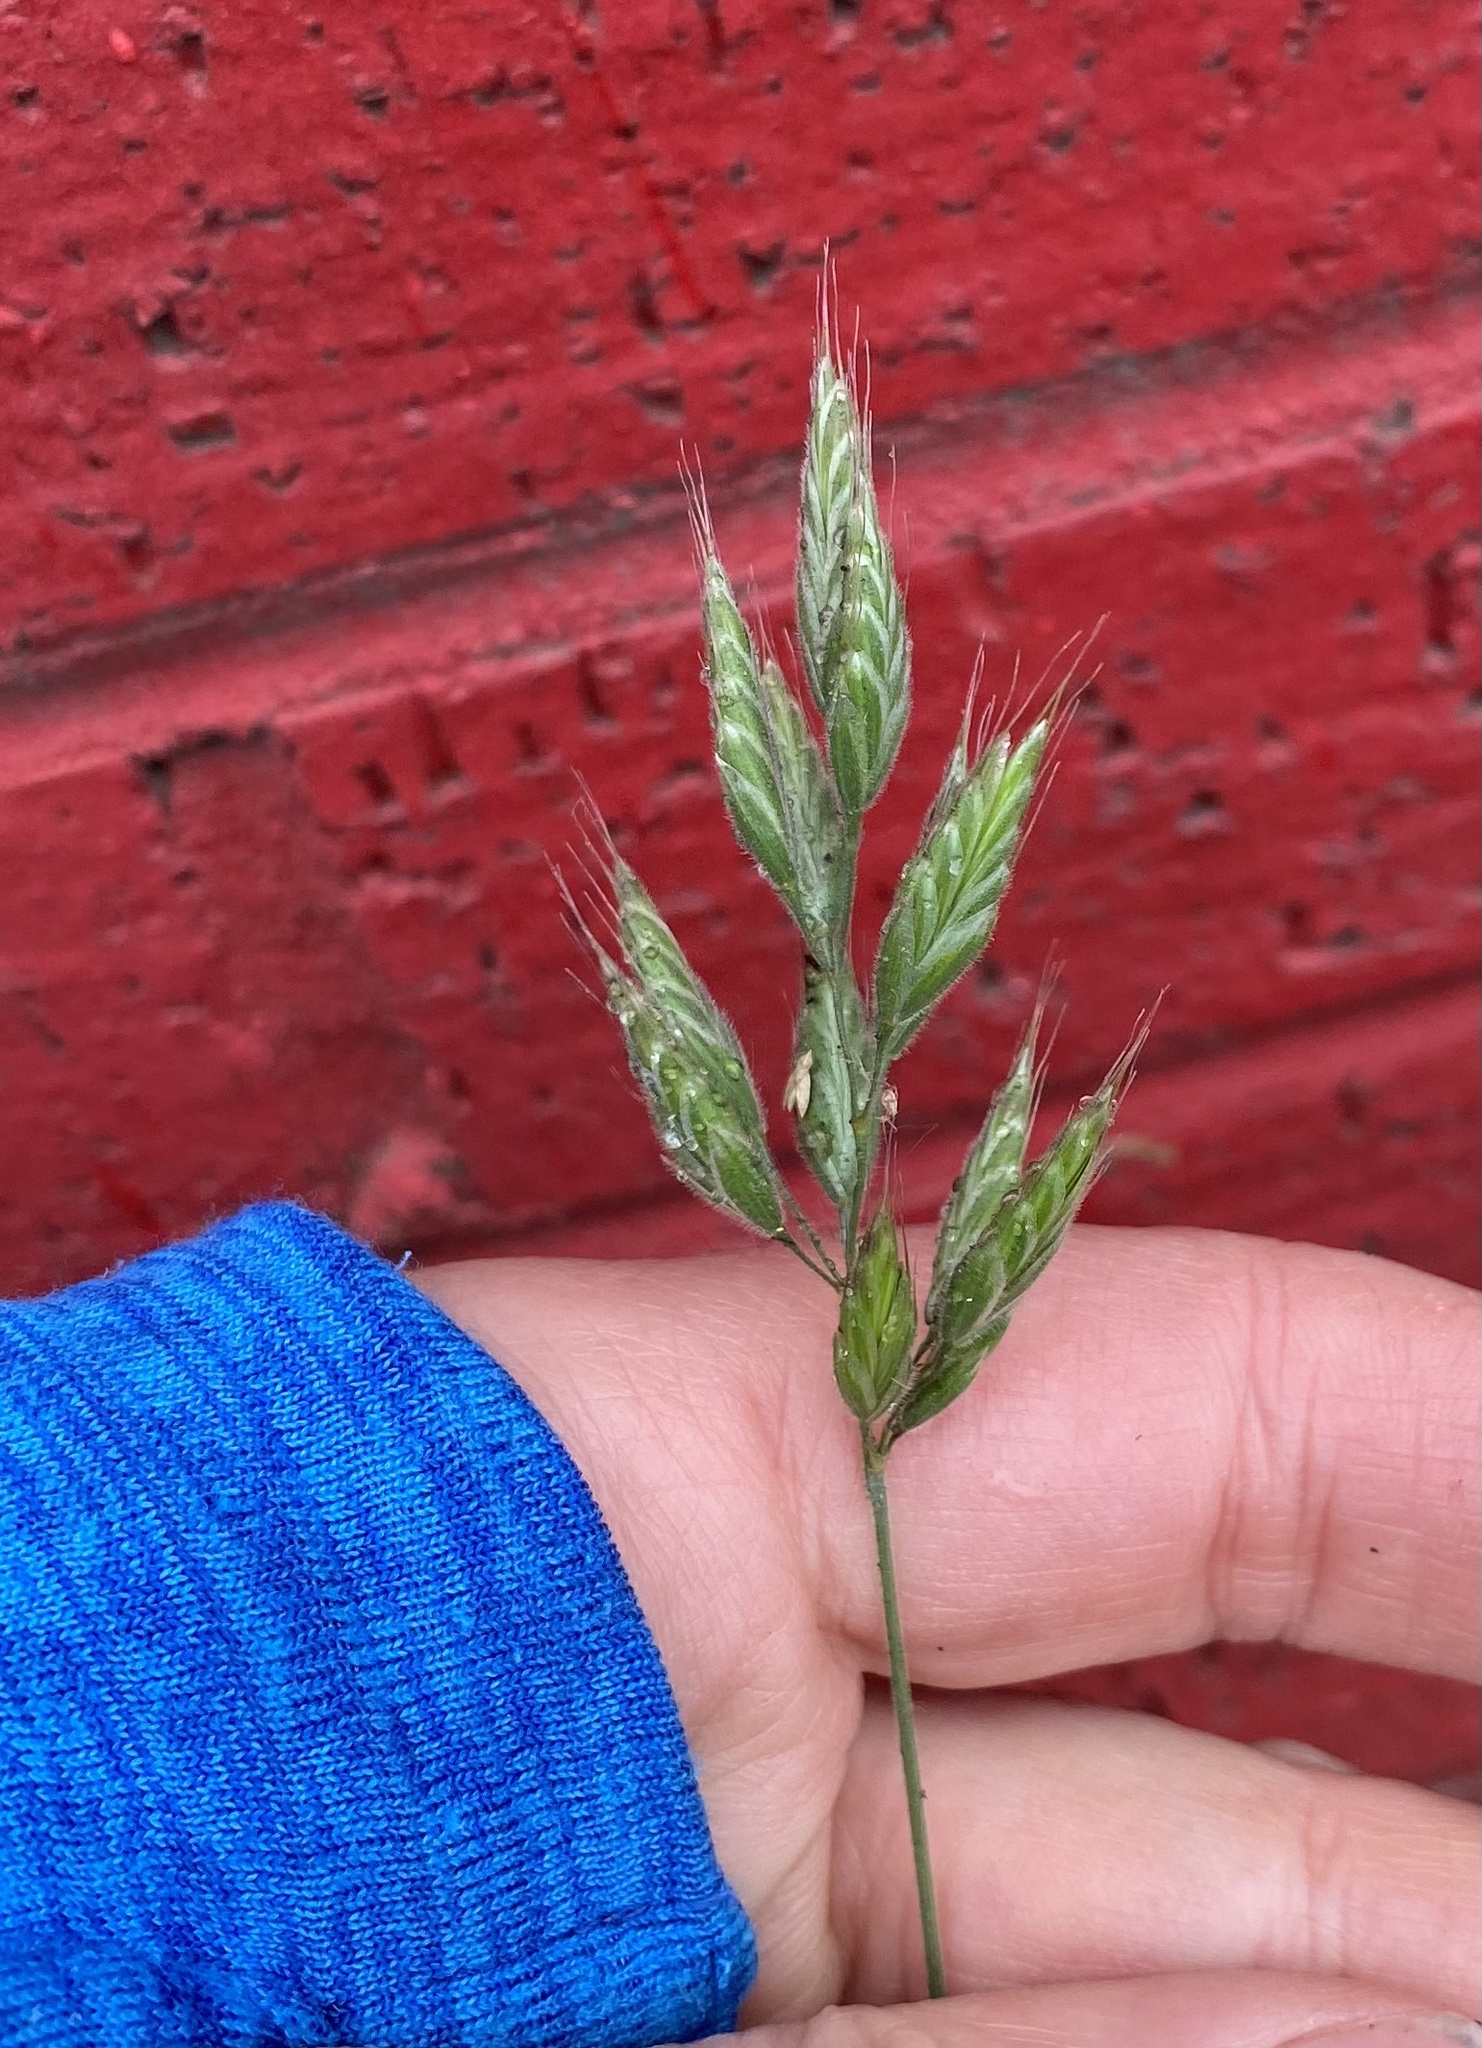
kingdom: Plantae
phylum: Tracheophyta
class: Liliopsida
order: Poales
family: Poaceae
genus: Bromus
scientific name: Bromus hordeaceus
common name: Soft brome
